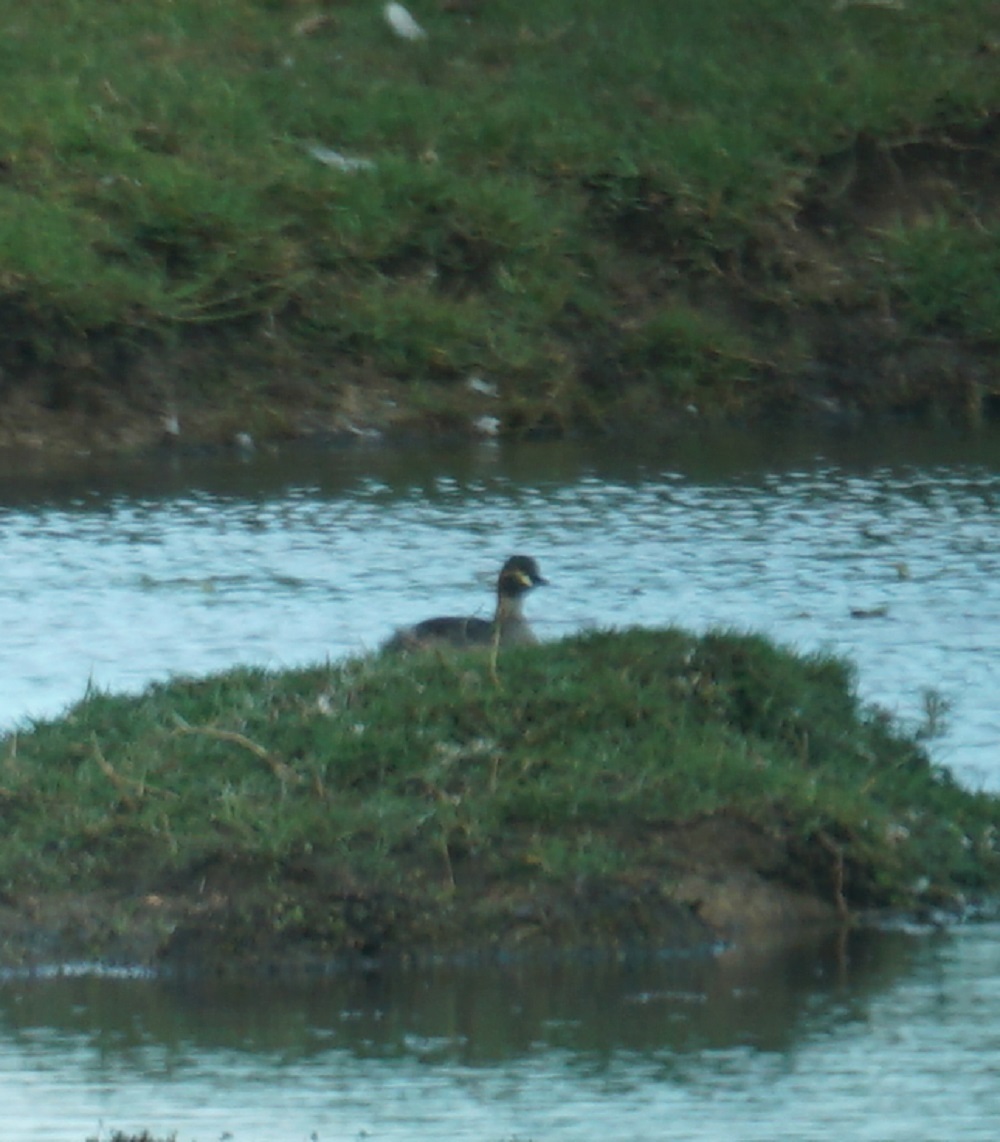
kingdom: Animalia
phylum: Chordata
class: Aves
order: Podicipediformes
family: Podicipedidae
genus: Tachybaptus
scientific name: Tachybaptus novaehollandiae
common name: Australasian grebe
